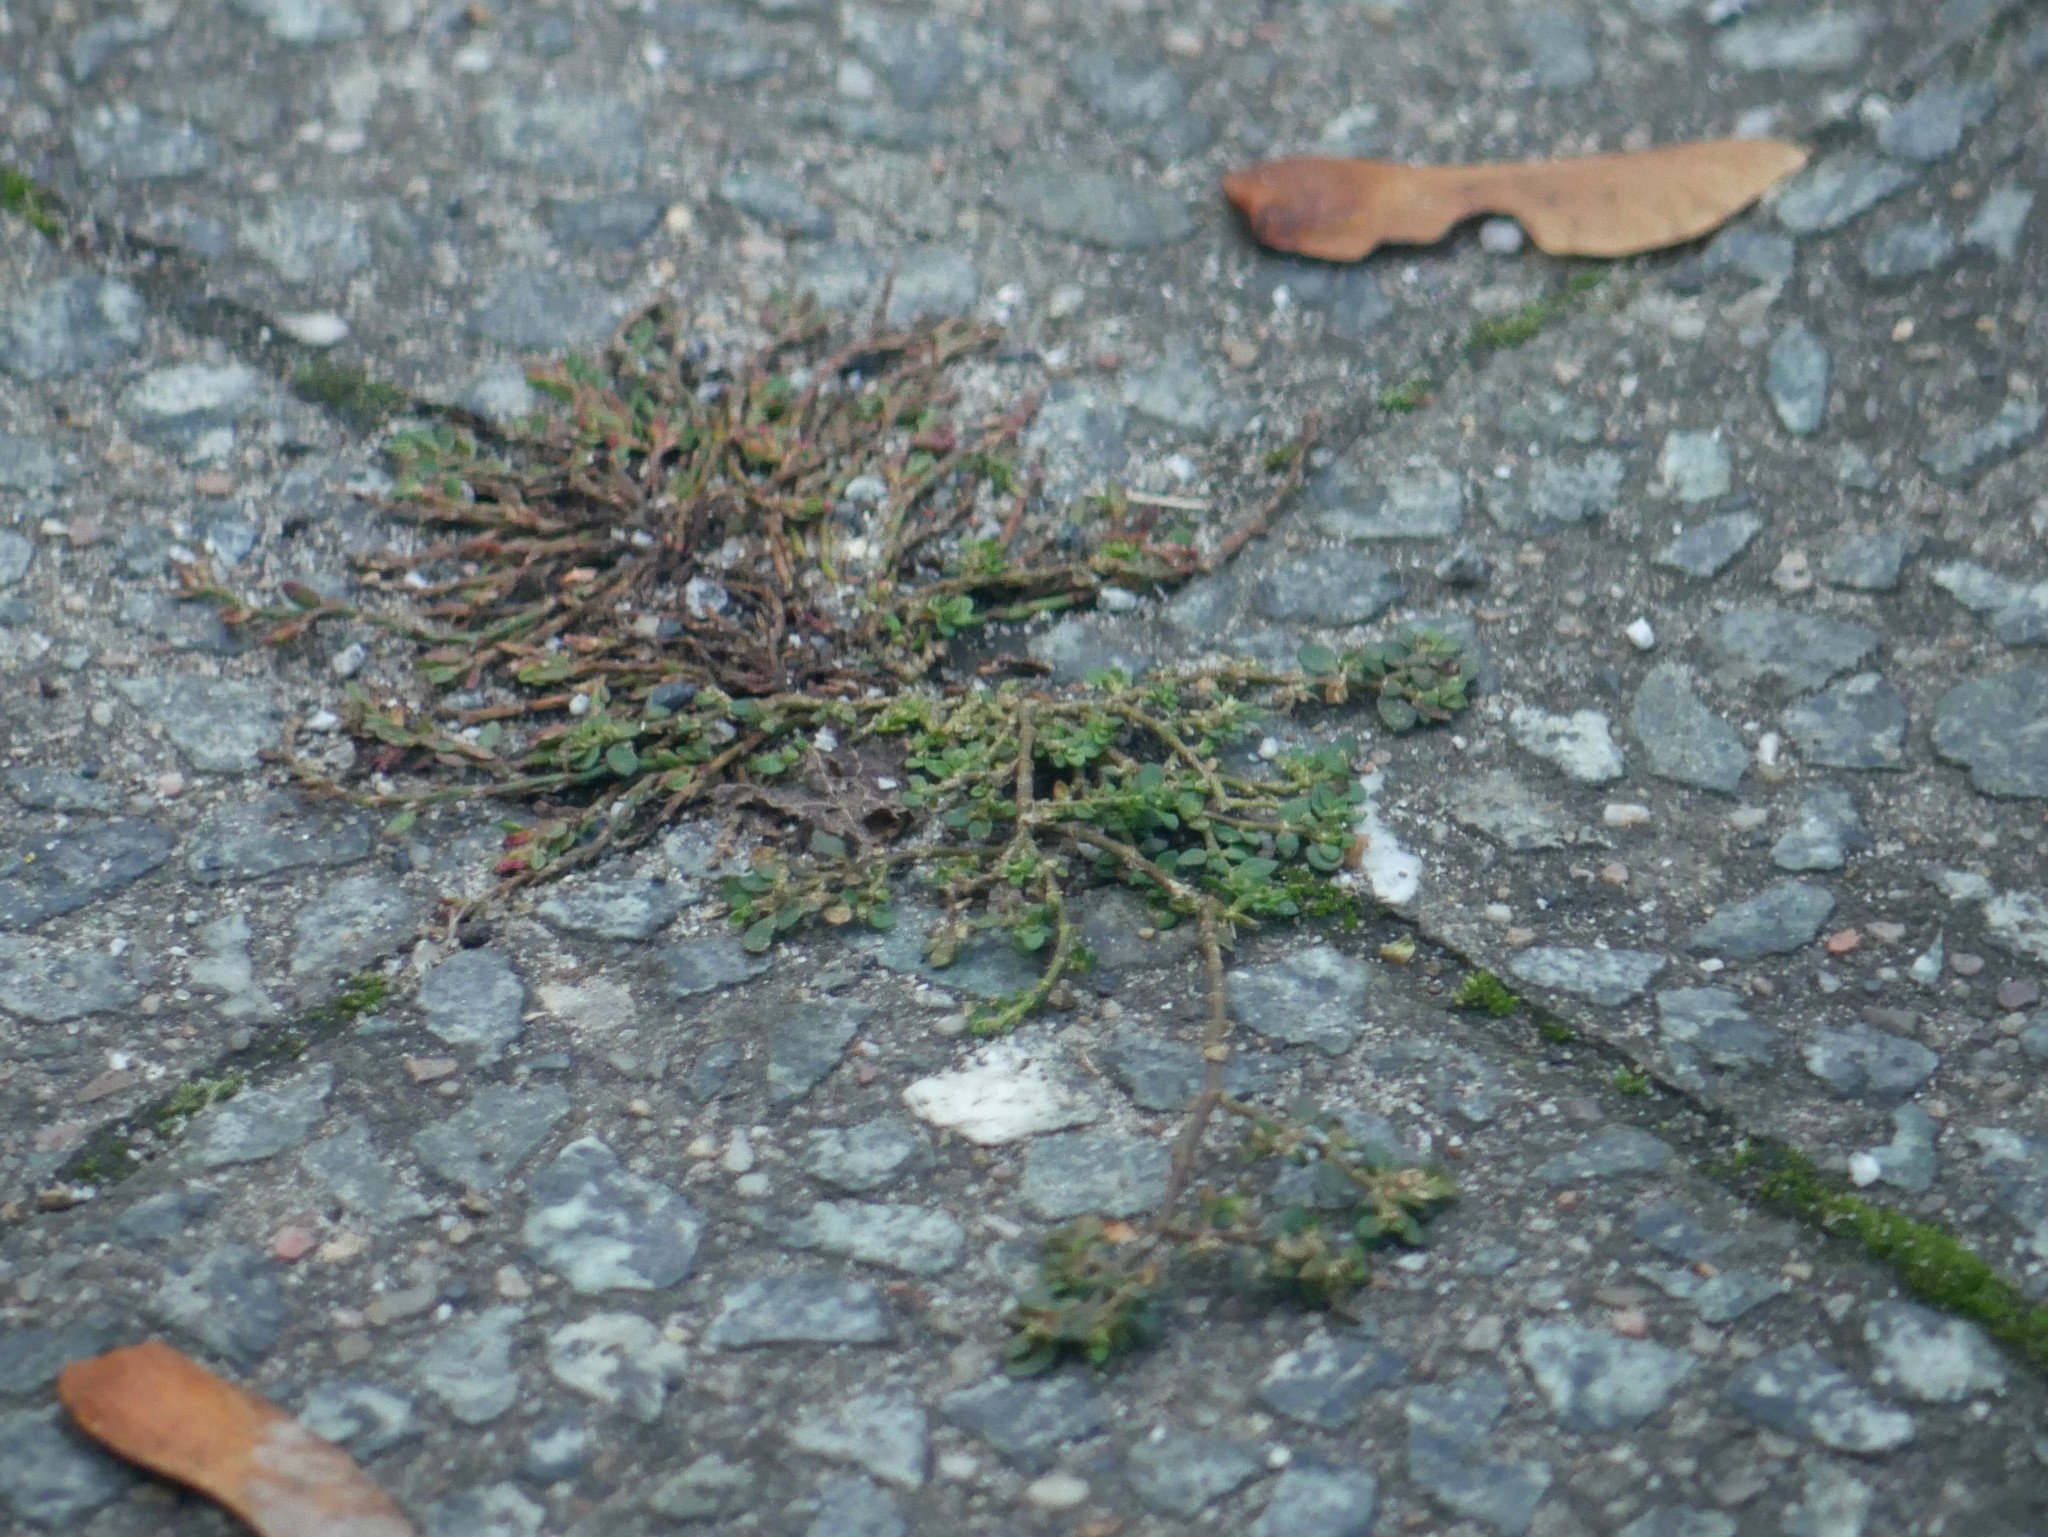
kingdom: Plantae
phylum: Tracheophyta
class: Magnoliopsida
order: Caryophyllales
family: Polygonaceae
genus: Polygonum
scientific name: Polygonum aviculare
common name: Prostrate knotweed
